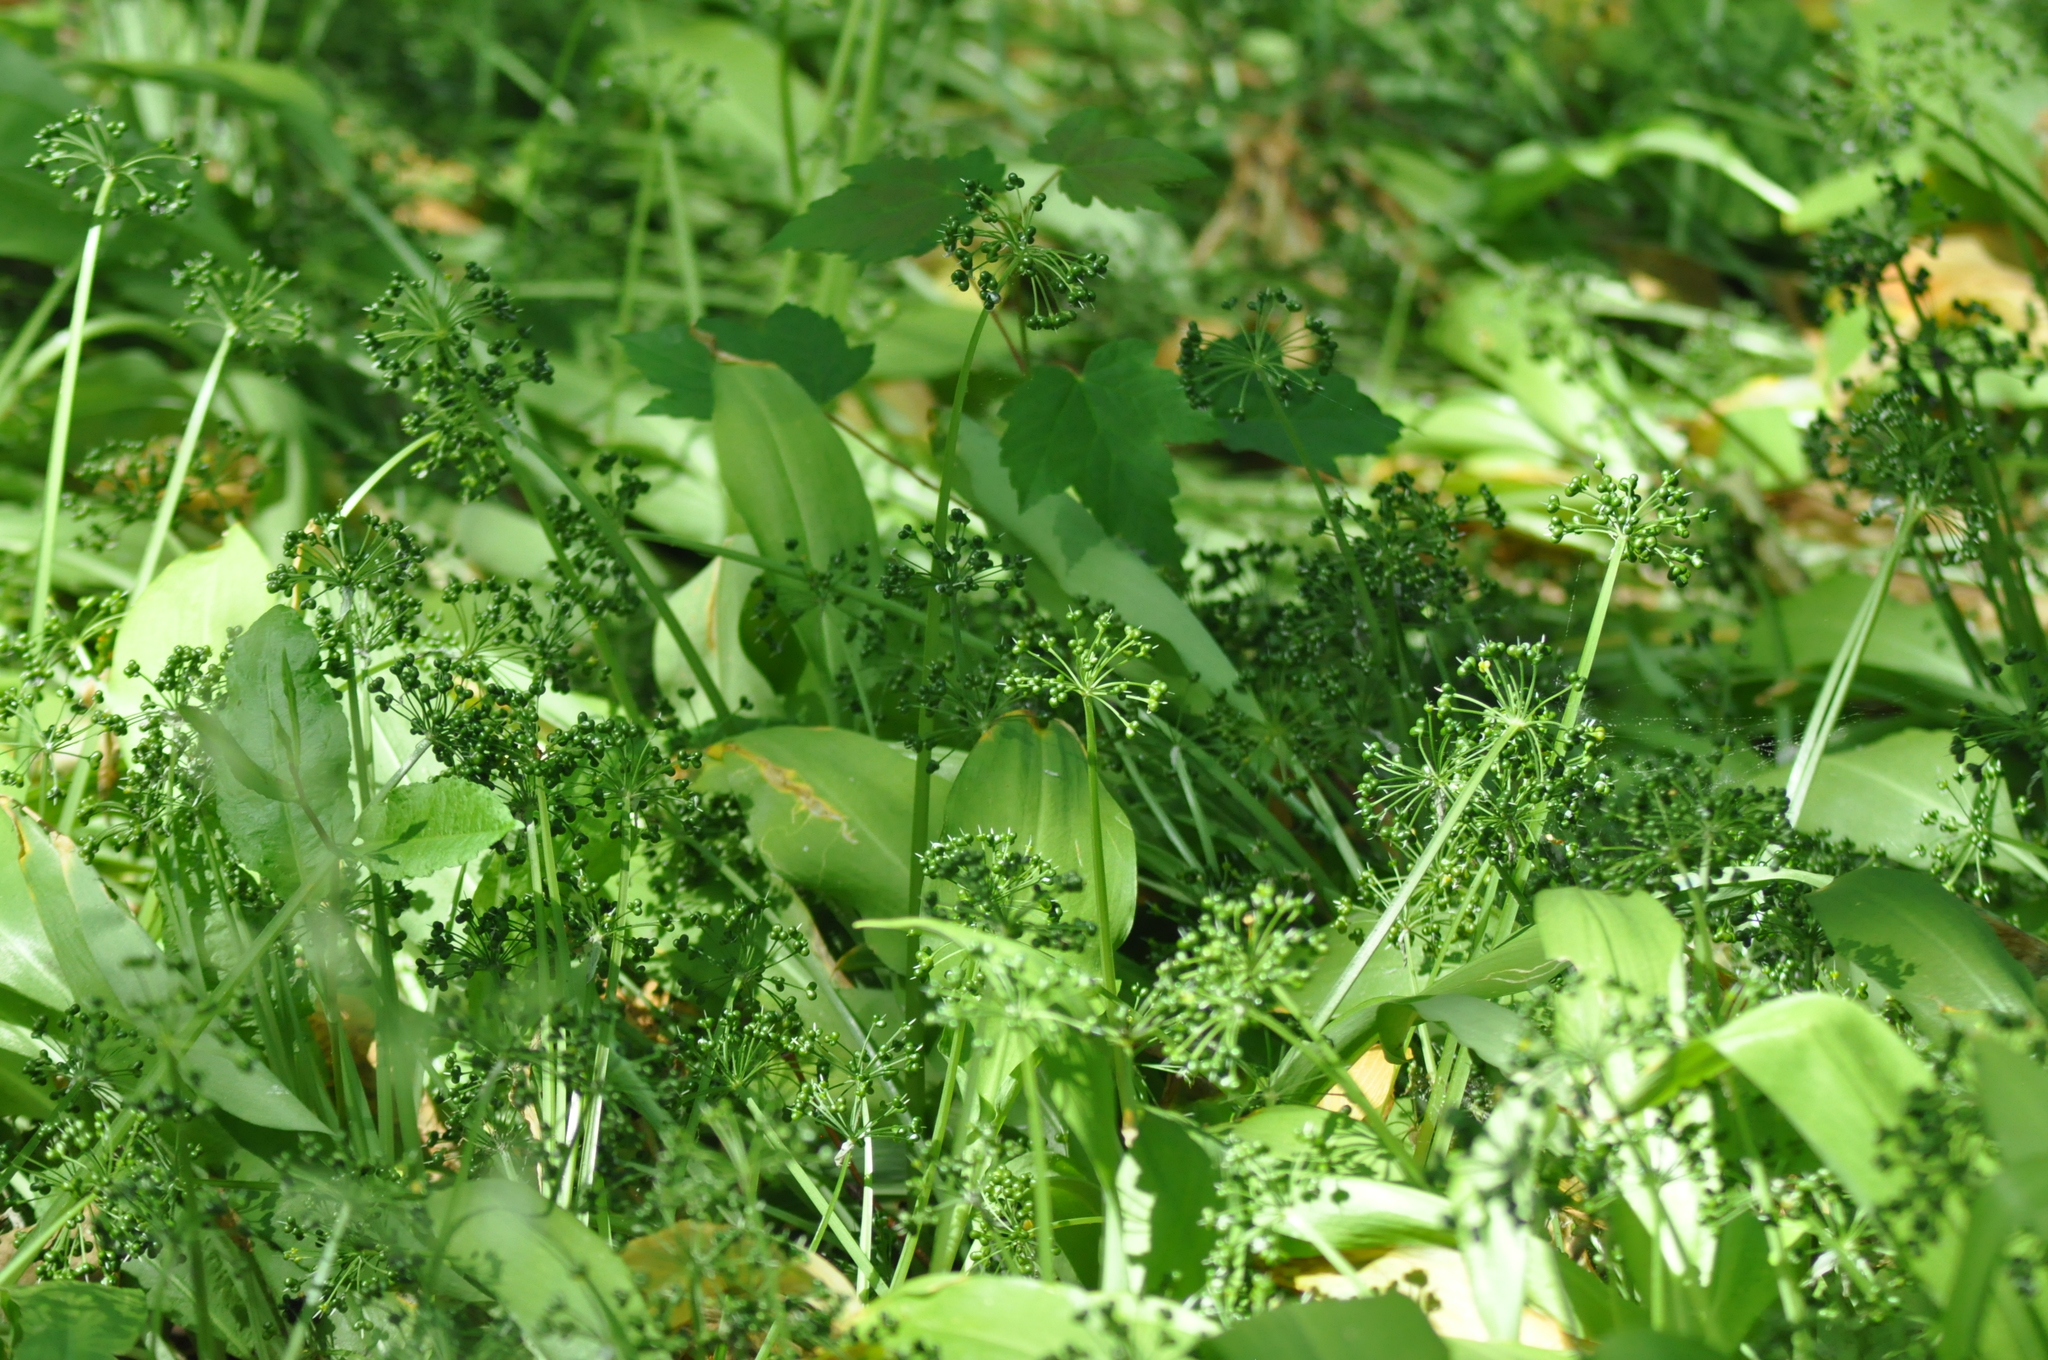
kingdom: Plantae
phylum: Tracheophyta
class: Liliopsida
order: Asparagales
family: Amaryllidaceae
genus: Allium
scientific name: Allium ursinum
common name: Ramsons
